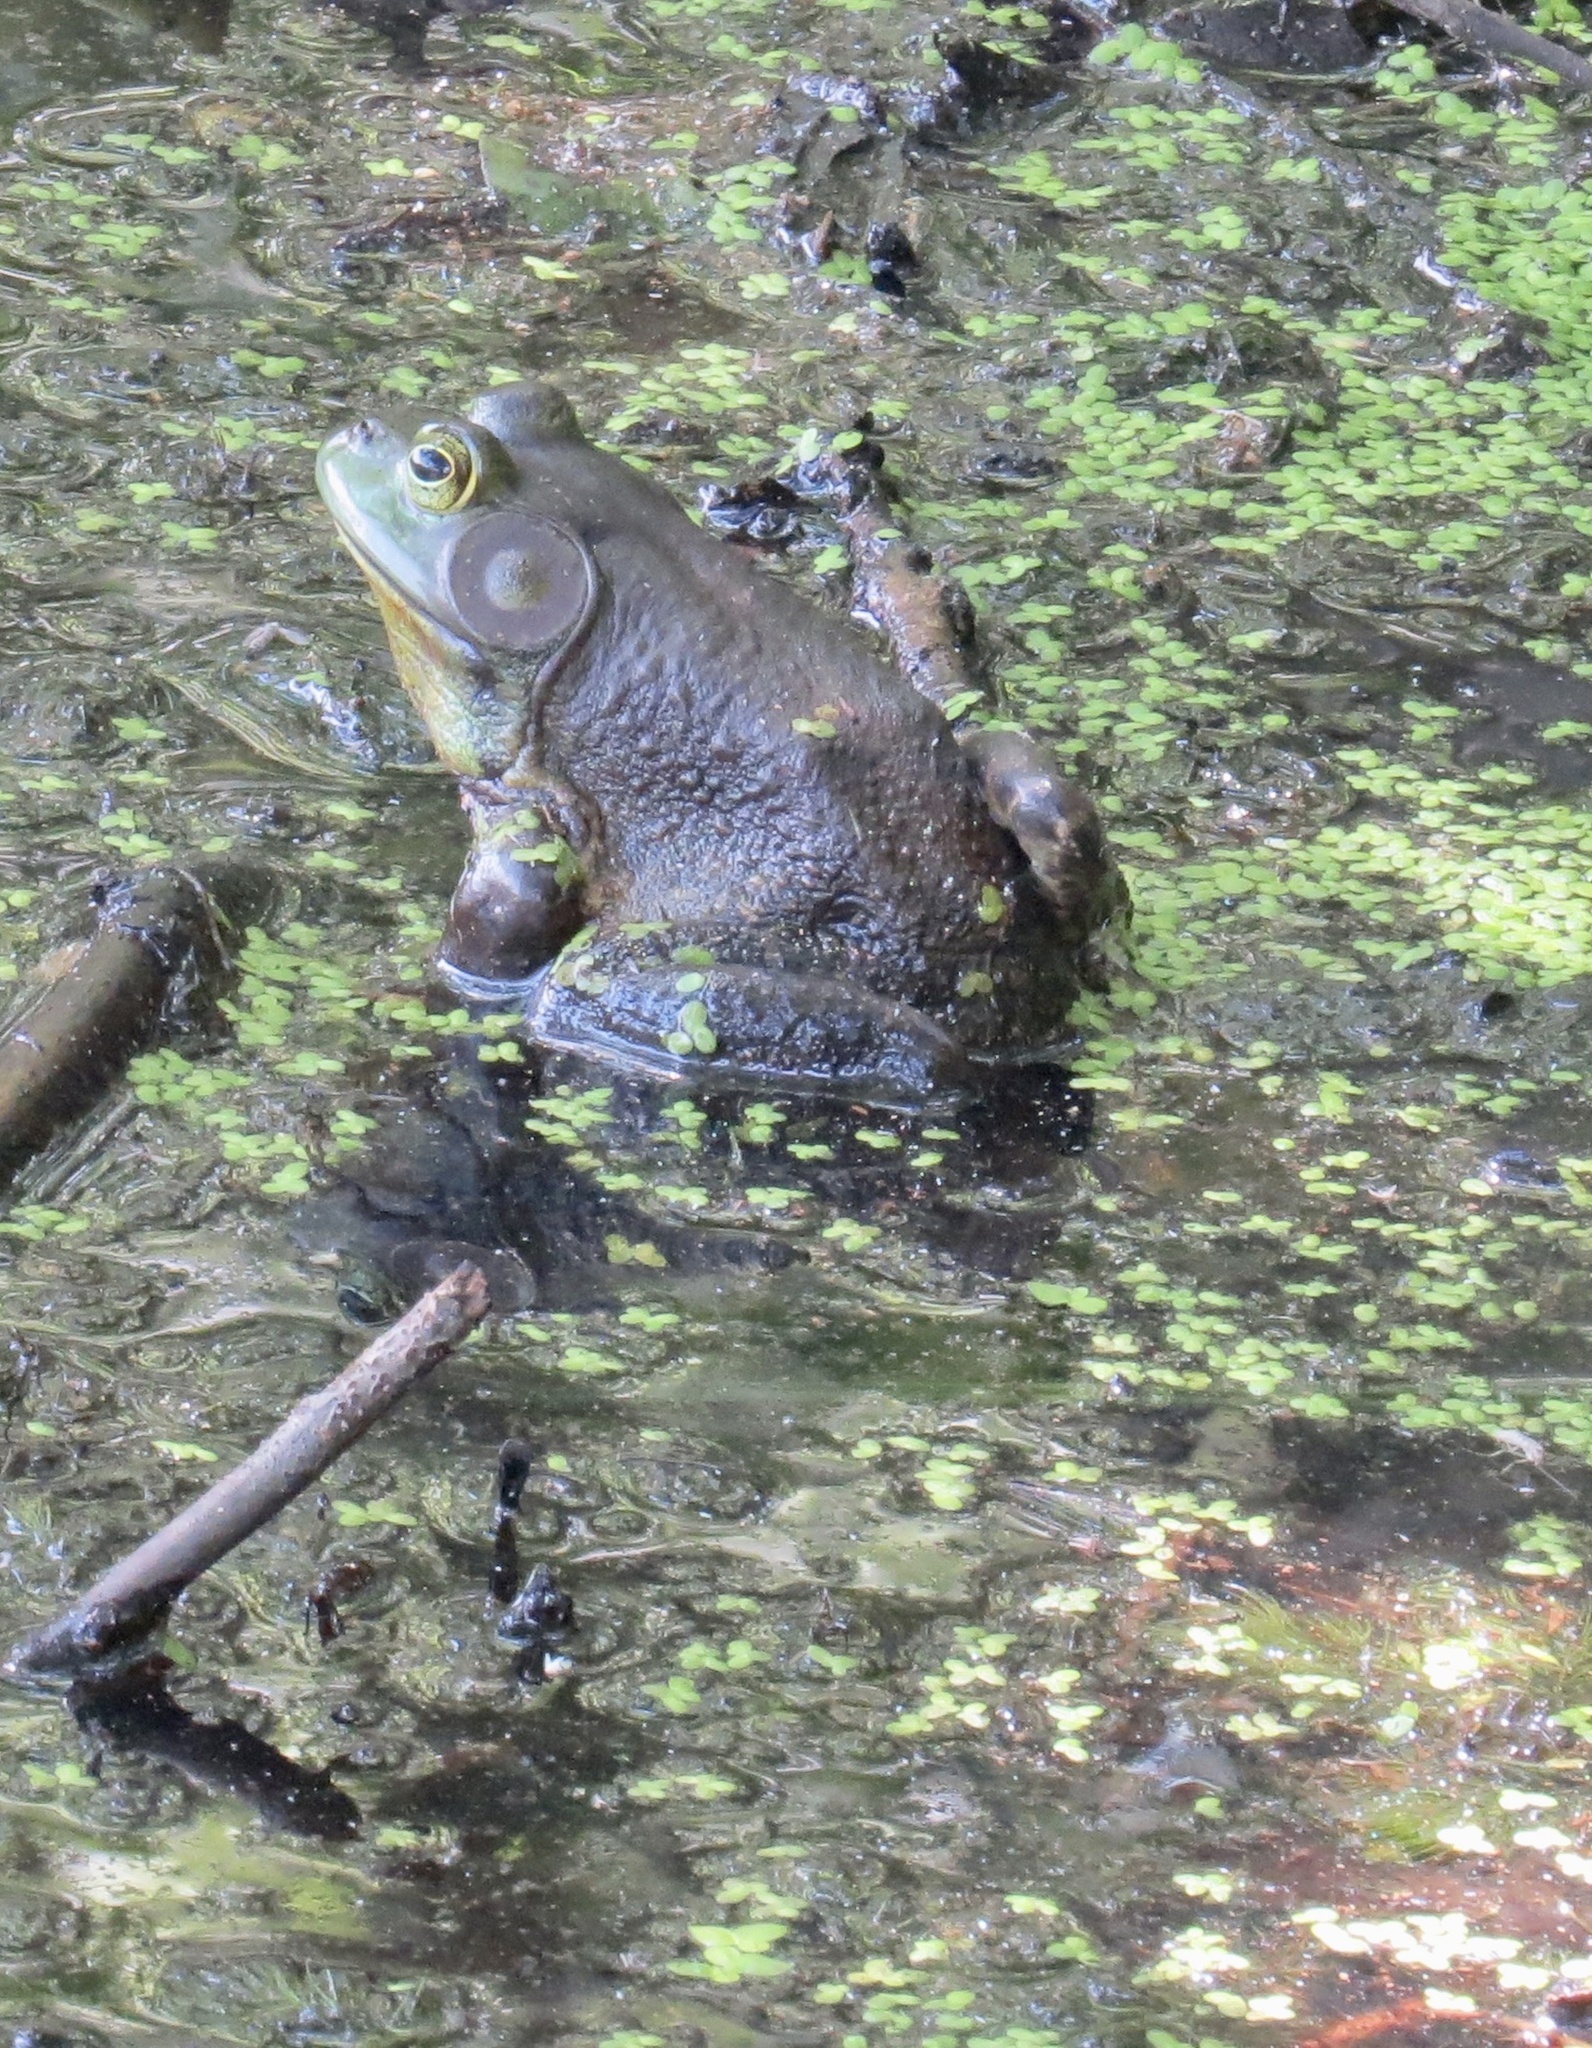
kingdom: Animalia
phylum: Chordata
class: Amphibia
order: Anura
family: Ranidae
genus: Lithobates
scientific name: Lithobates catesbeianus
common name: American bullfrog
